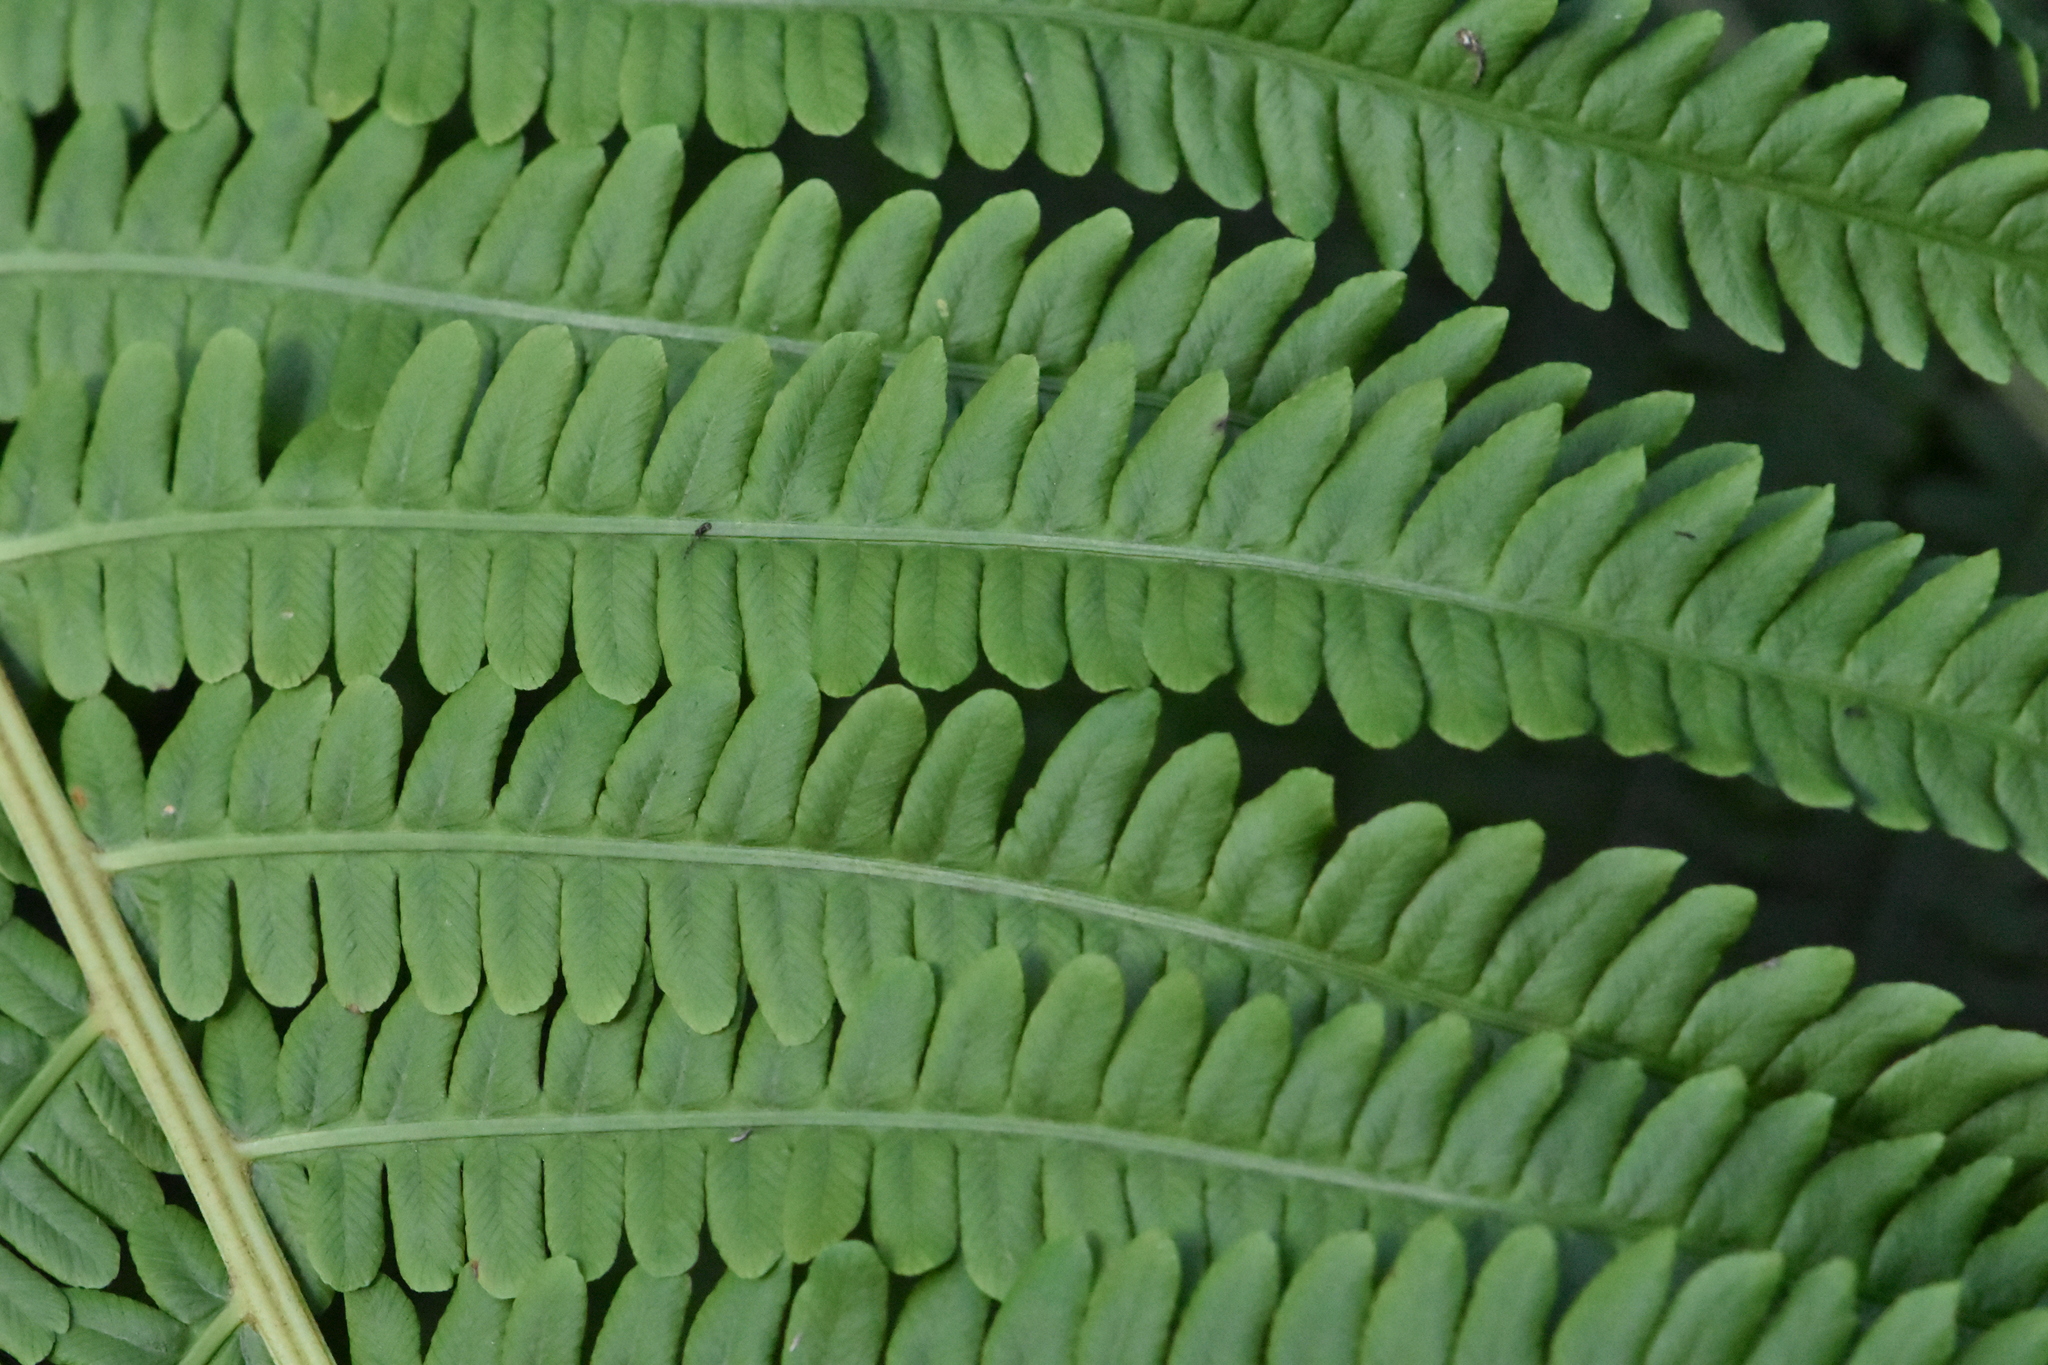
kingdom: Plantae
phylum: Tracheophyta
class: Polypodiopsida
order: Polypodiales
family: Onocleaceae
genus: Matteuccia
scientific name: Matteuccia struthiopteris
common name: Ostrich fern
